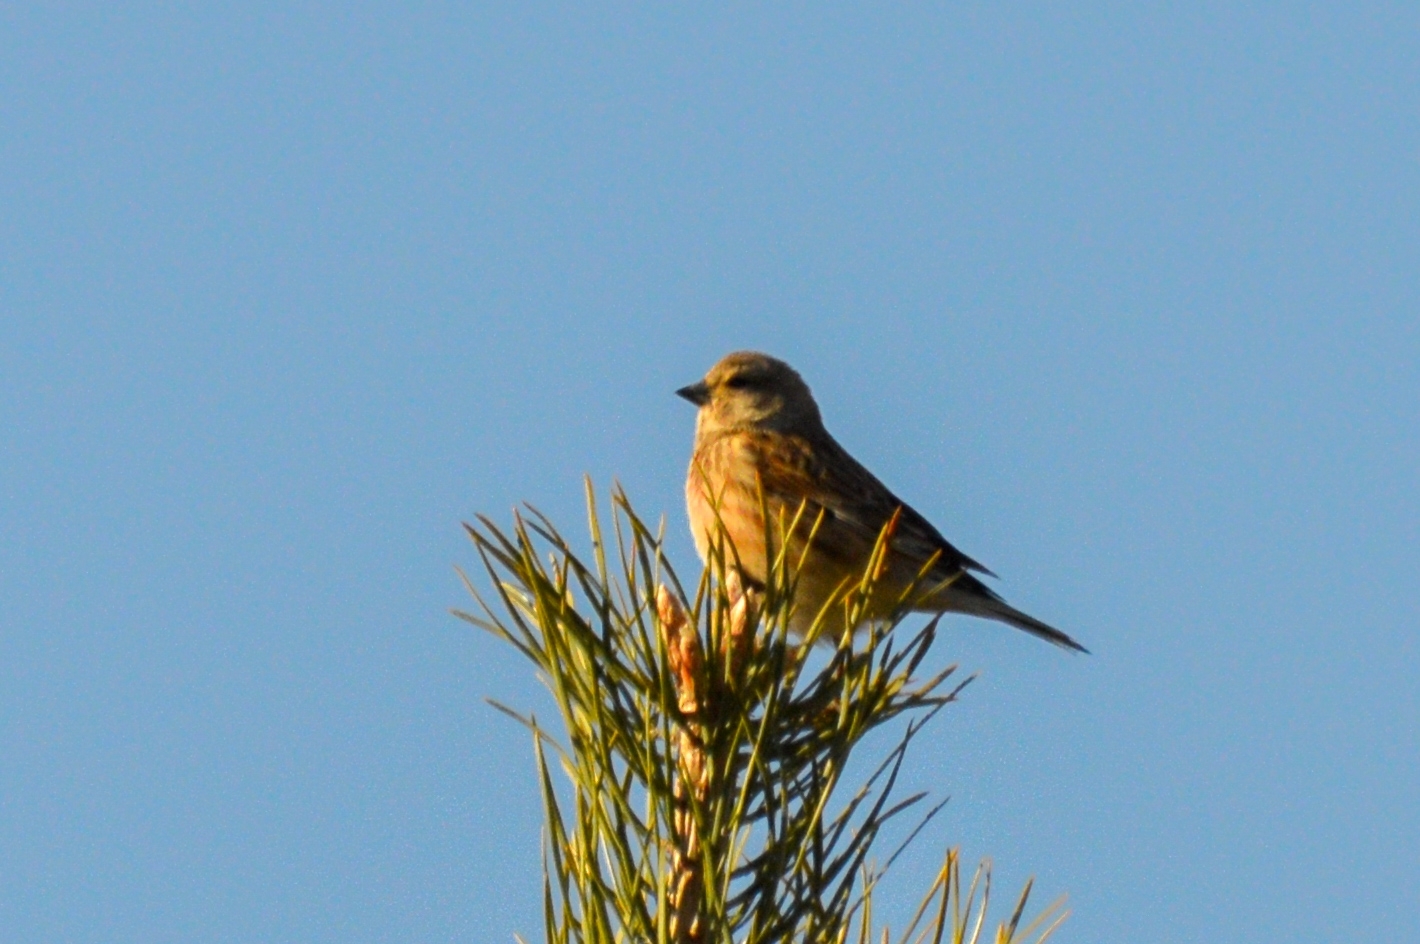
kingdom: Animalia
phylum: Chordata
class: Aves
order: Passeriformes
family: Fringillidae
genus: Linaria
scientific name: Linaria cannabina
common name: Common linnet
